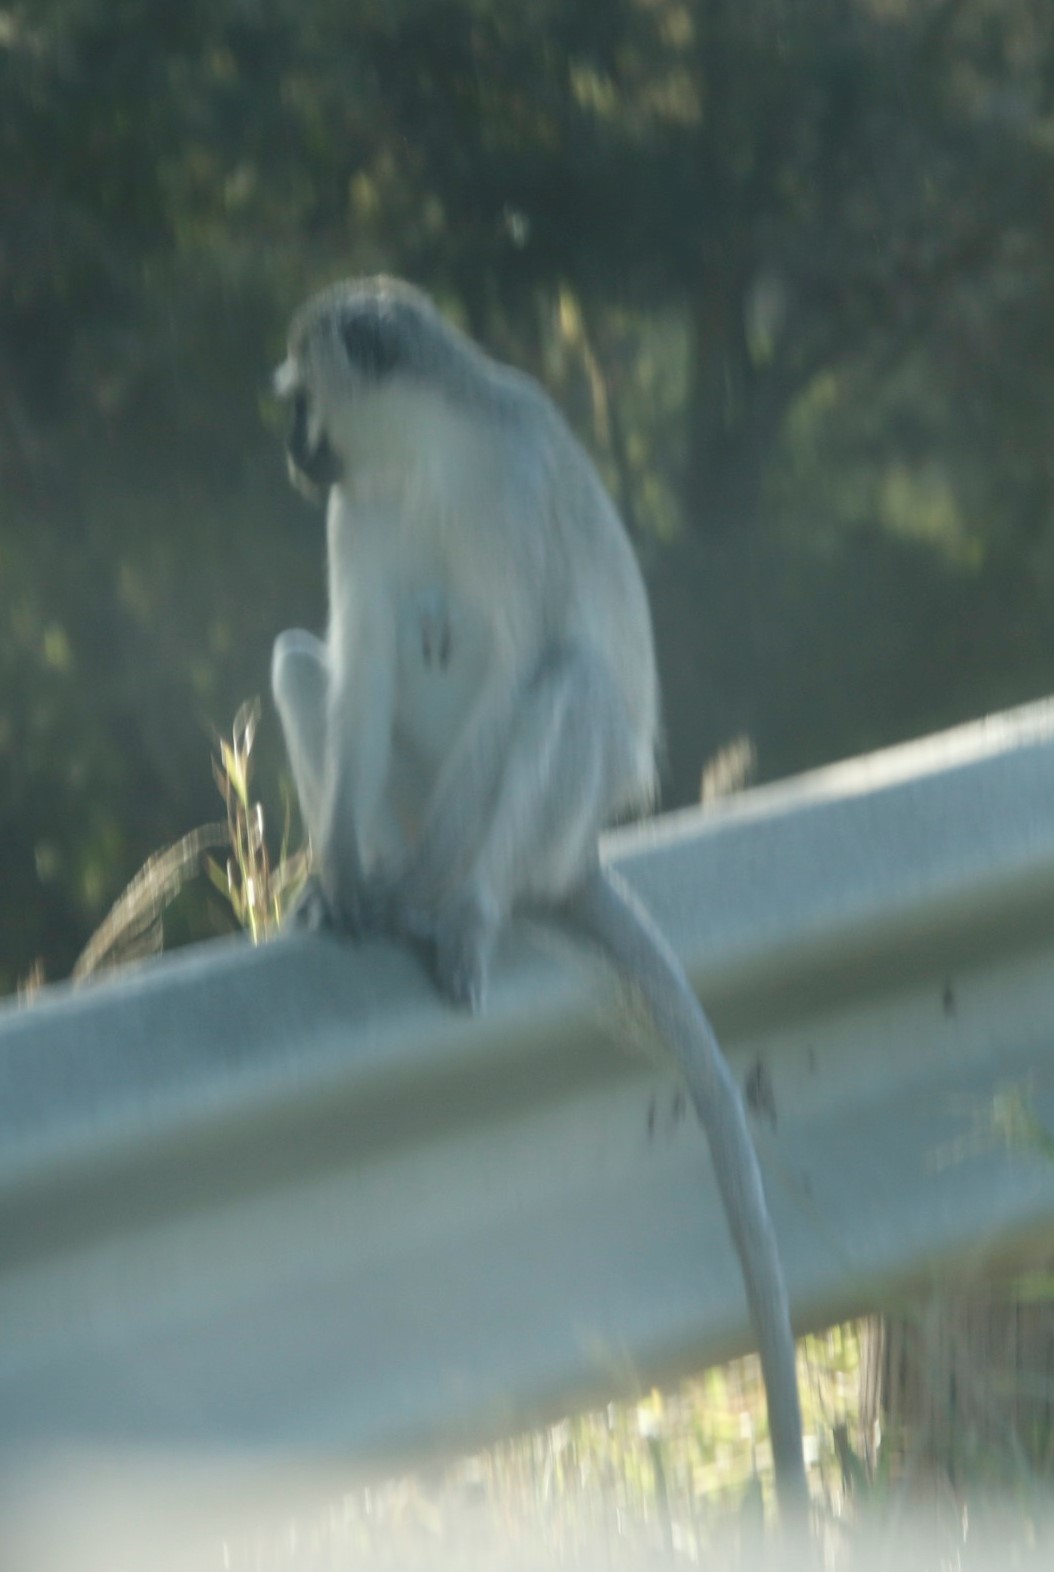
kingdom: Animalia
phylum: Chordata
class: Mammalia
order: Primates
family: Cercopithecidae
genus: Chlorocebus
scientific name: Chlorocebus pygerythrus
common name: Vervet monkey
